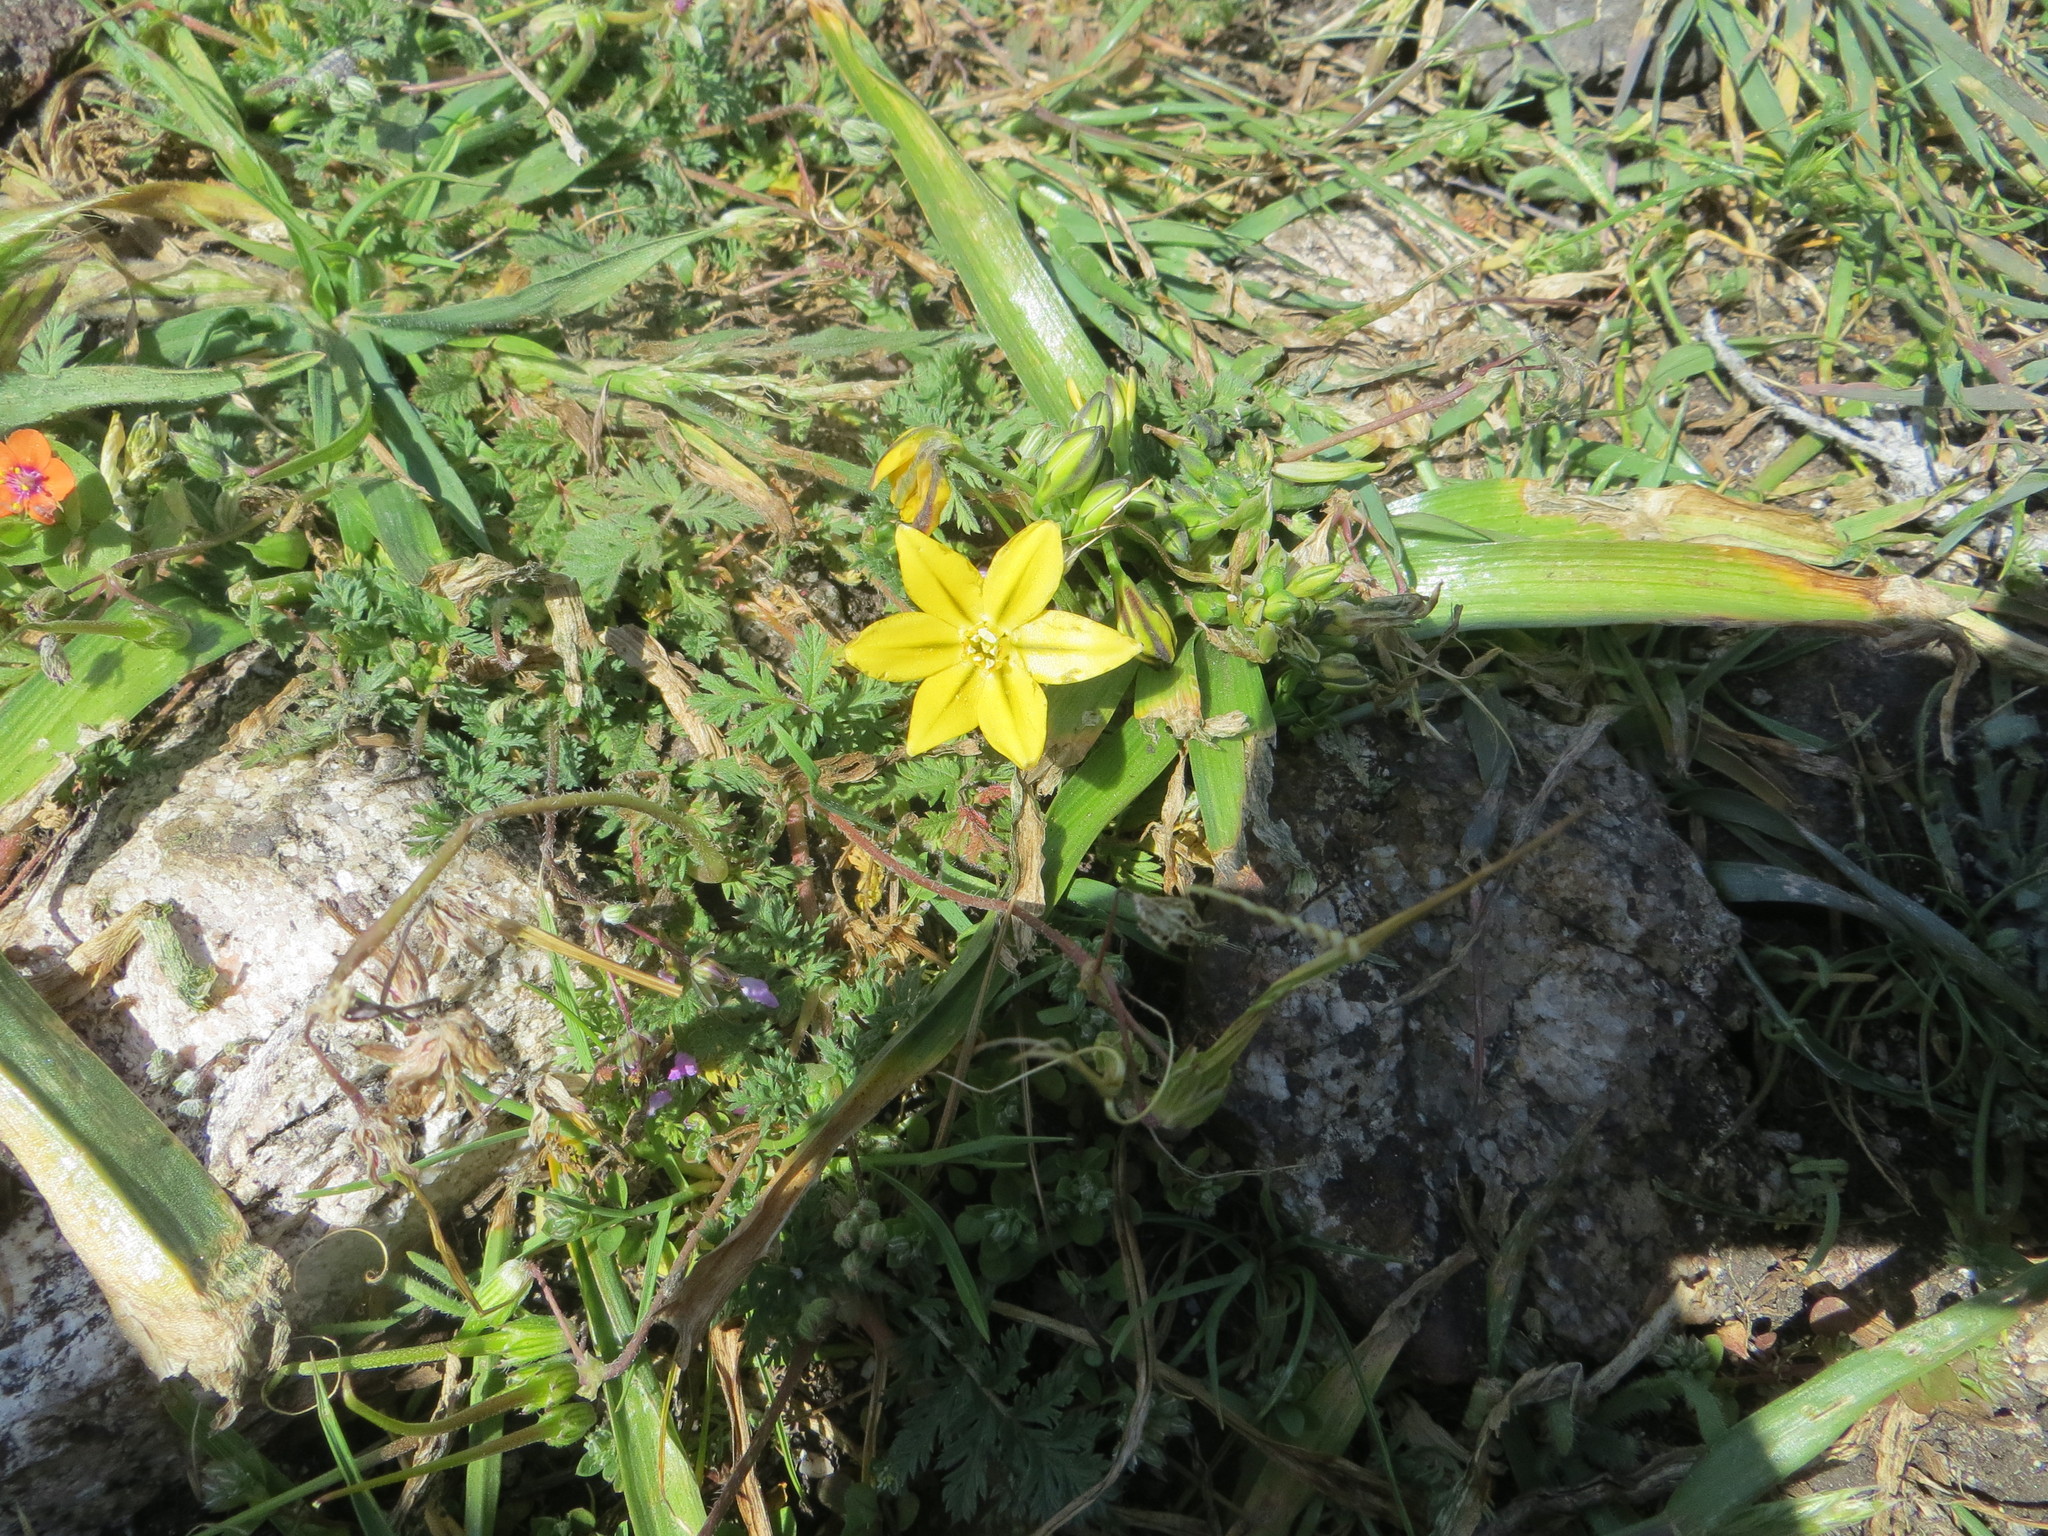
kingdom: Plantae
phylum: Tracheophyta
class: Liliopsida
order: Asparagales
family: Asparagaceae
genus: Triteleia
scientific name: Triteleia ixioides
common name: Yellow-brodiaea
